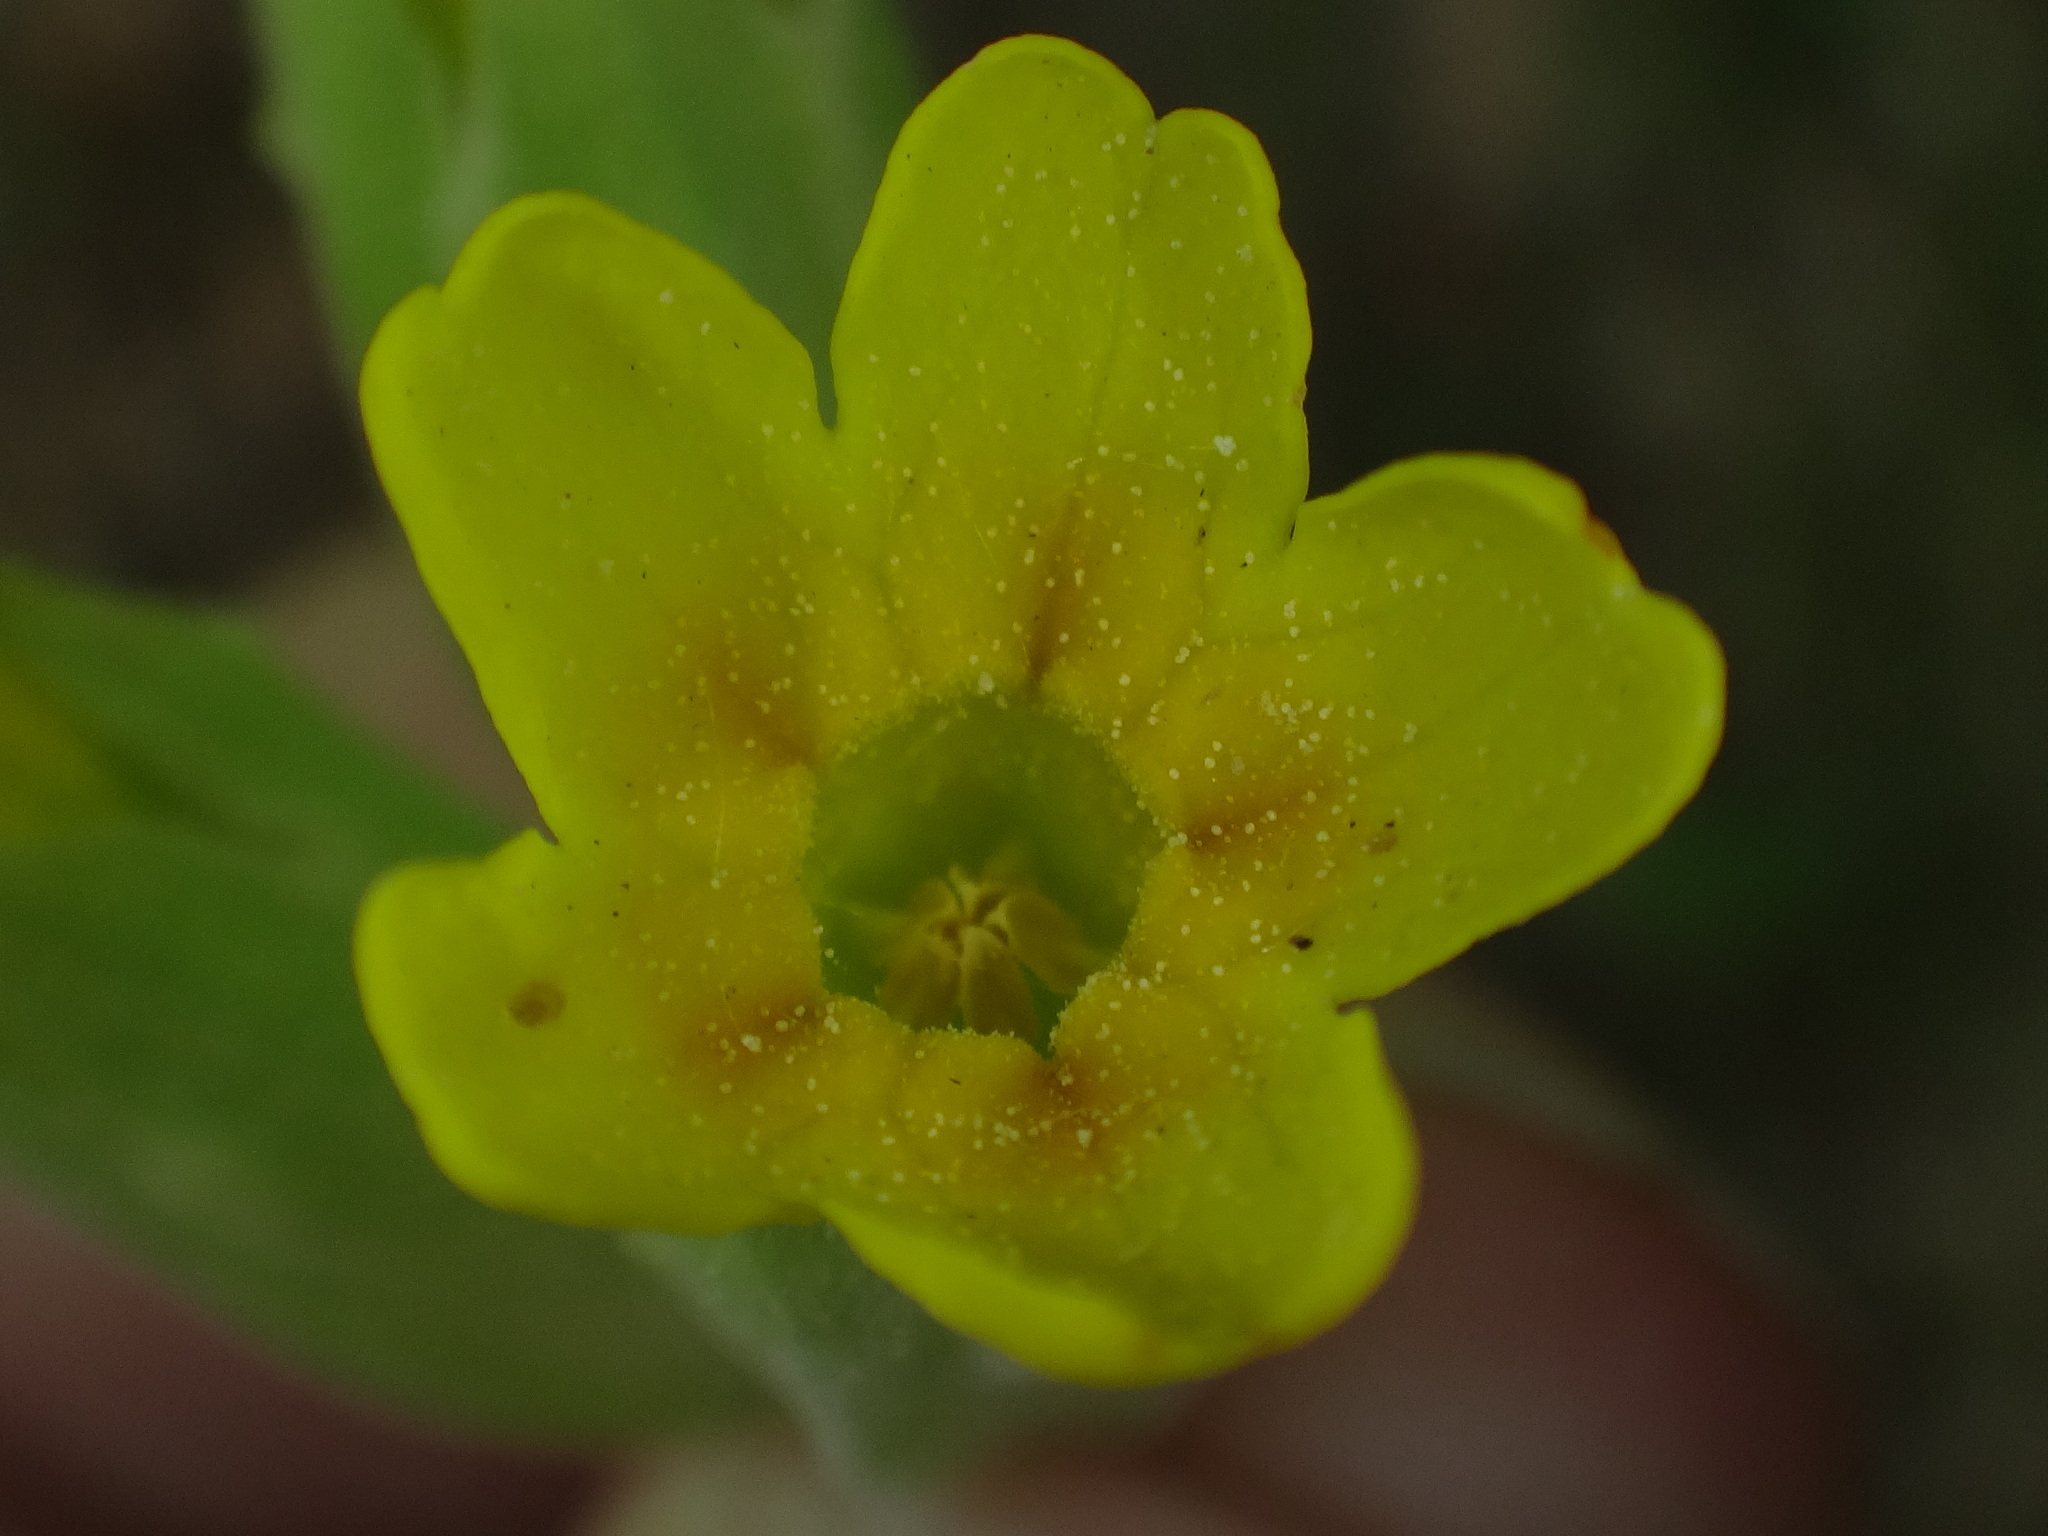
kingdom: Plantae
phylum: Tracheophyta
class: Magnoliopsida
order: Ericales
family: Primulaceae
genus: Primula
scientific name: Primula veris
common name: Cowslip
